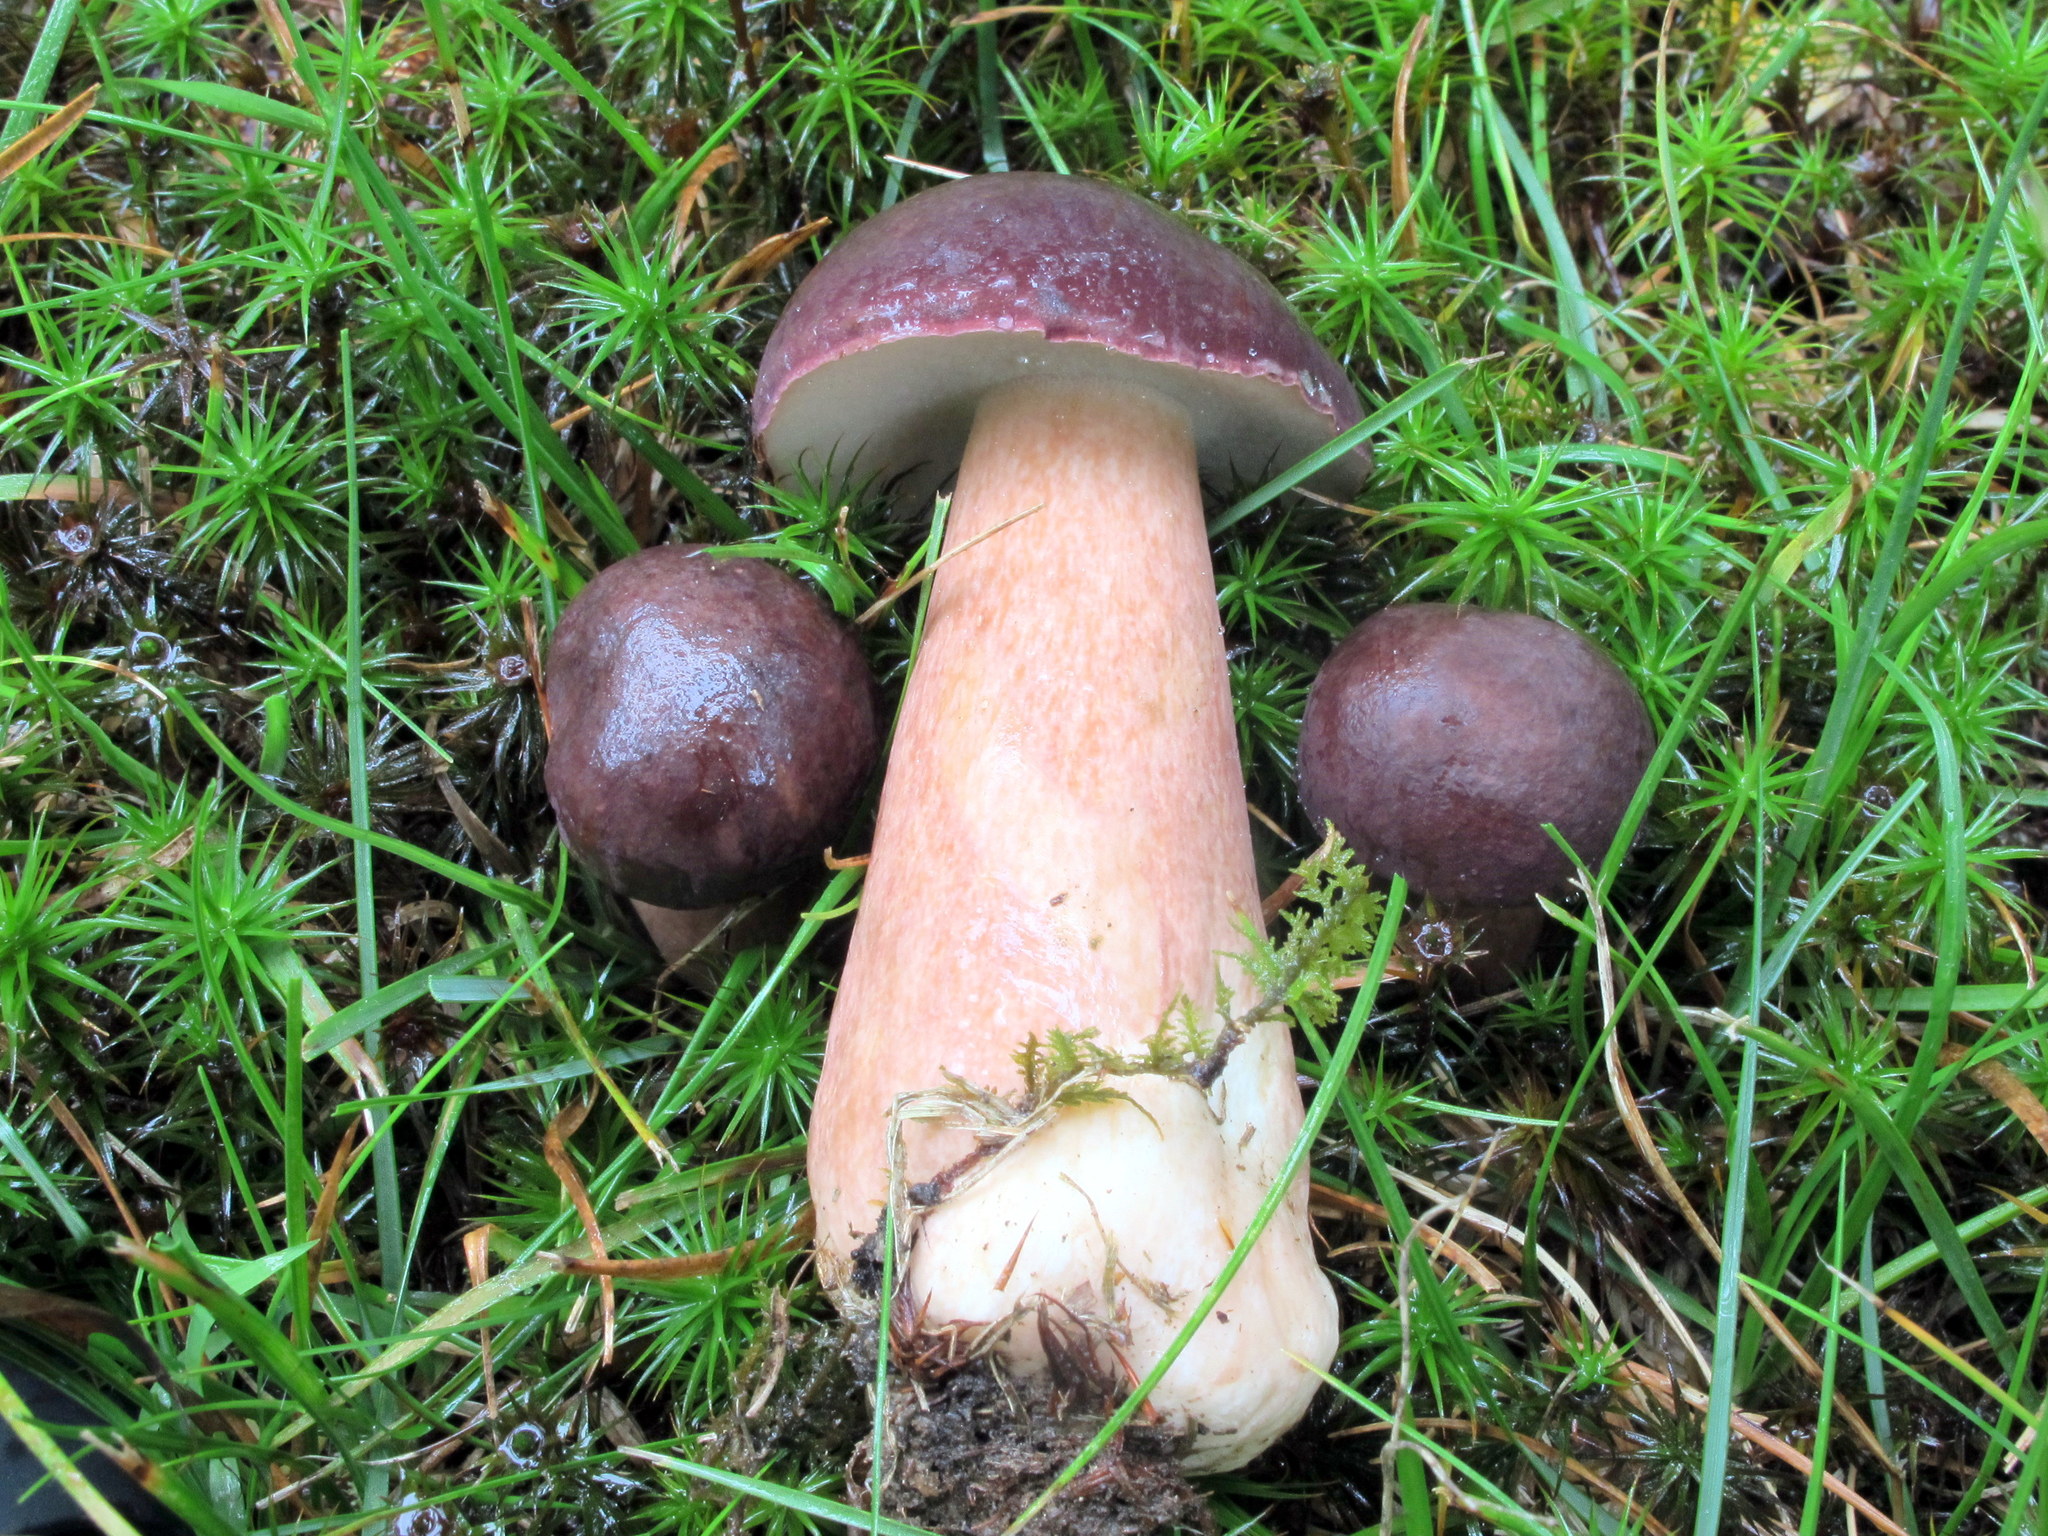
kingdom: Fungi
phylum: Basidiomycota
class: Agaricomycetes
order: Boletales
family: Boletaceae
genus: Tylopilus
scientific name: Tylopilus badiceps
